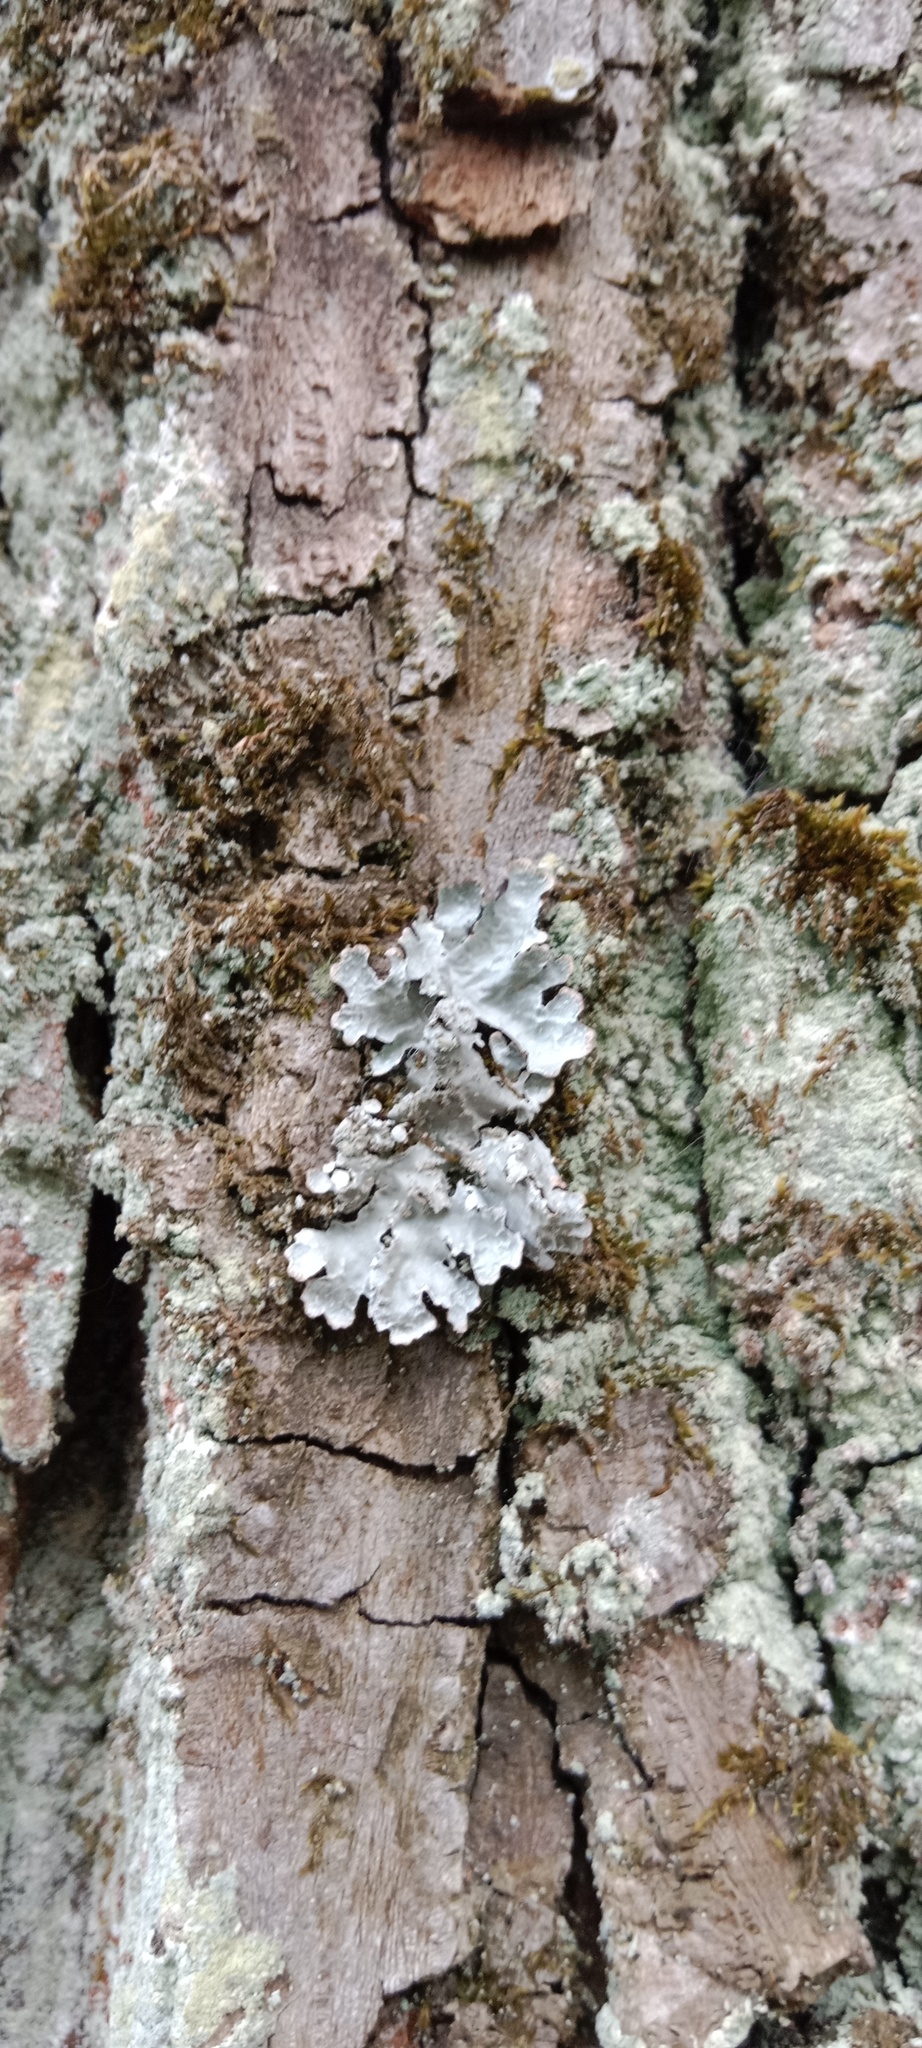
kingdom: Fungi
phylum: Ascomycota
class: Lecanoromycetes
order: Lecanorales
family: Parmeliaceae
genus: Parmelia
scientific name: Parmelia sulcata
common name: Netted shield lichen
